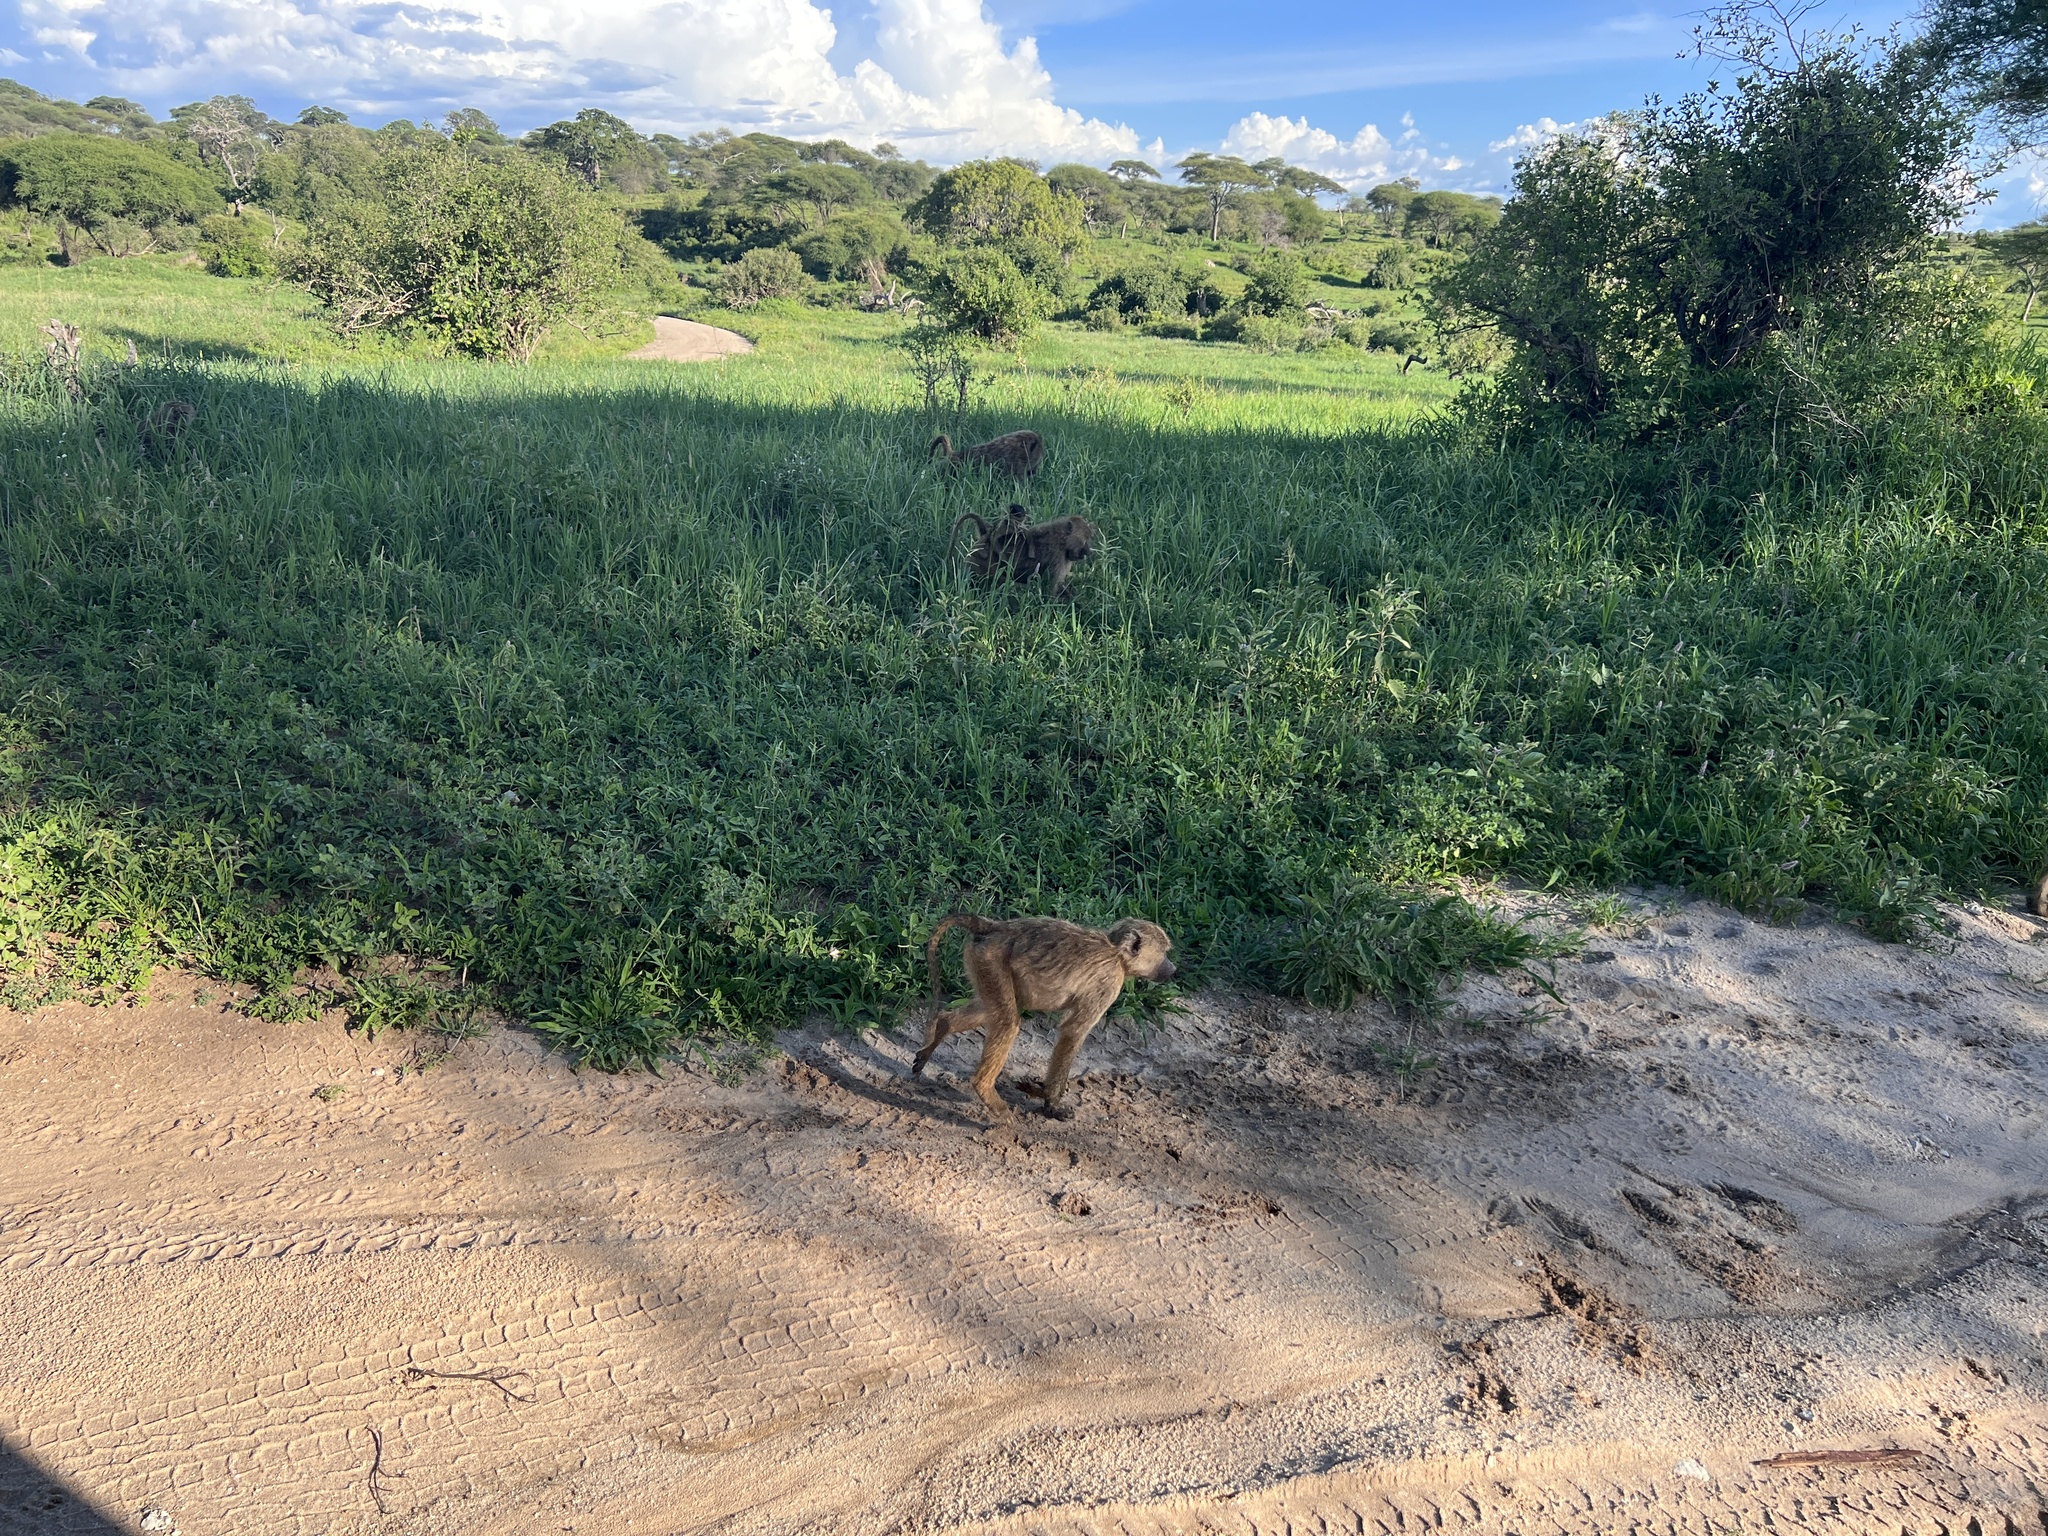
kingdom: Animalia
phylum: Chordata
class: Mammalia
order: Primates
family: Cercopithecidae
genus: Papio
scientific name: Papio anubis
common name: Olive baboon
